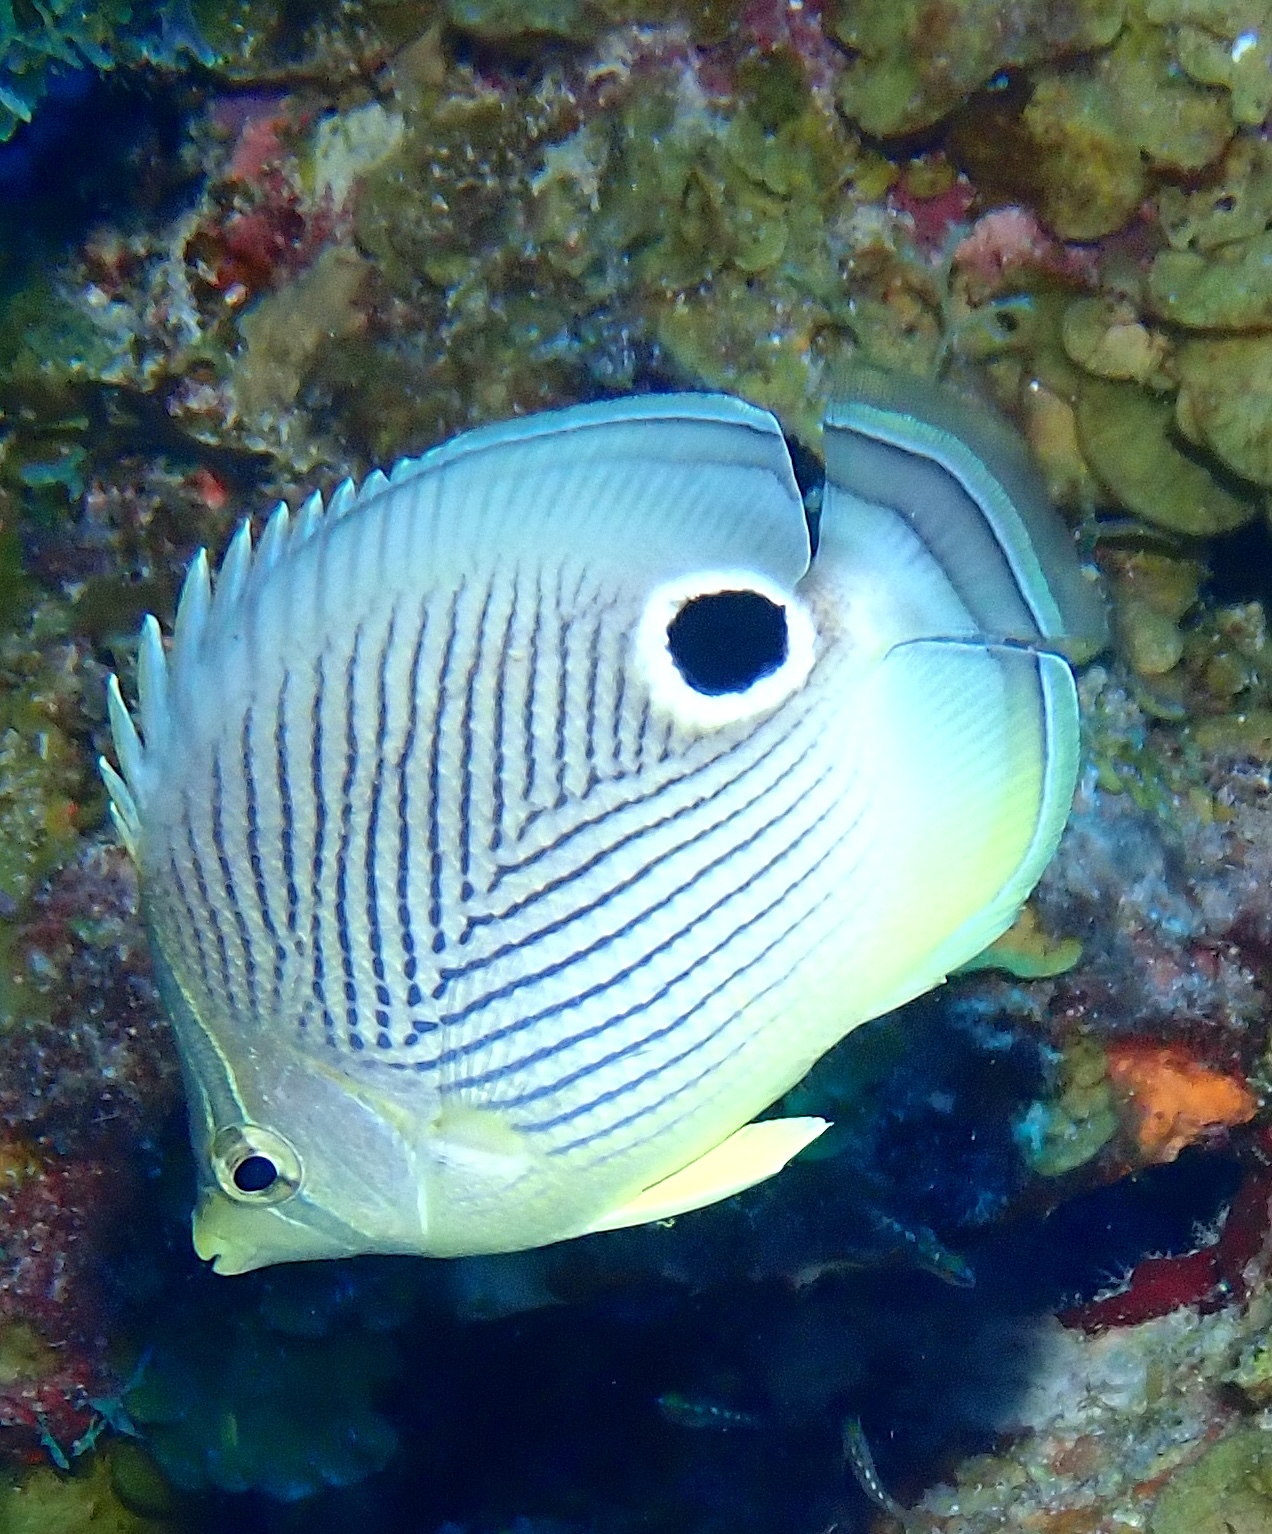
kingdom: Animalia
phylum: Chordata
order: Perciformes
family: Chaetodontidae
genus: Chaetodon
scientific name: Chaetodon capistratus
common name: Kete
